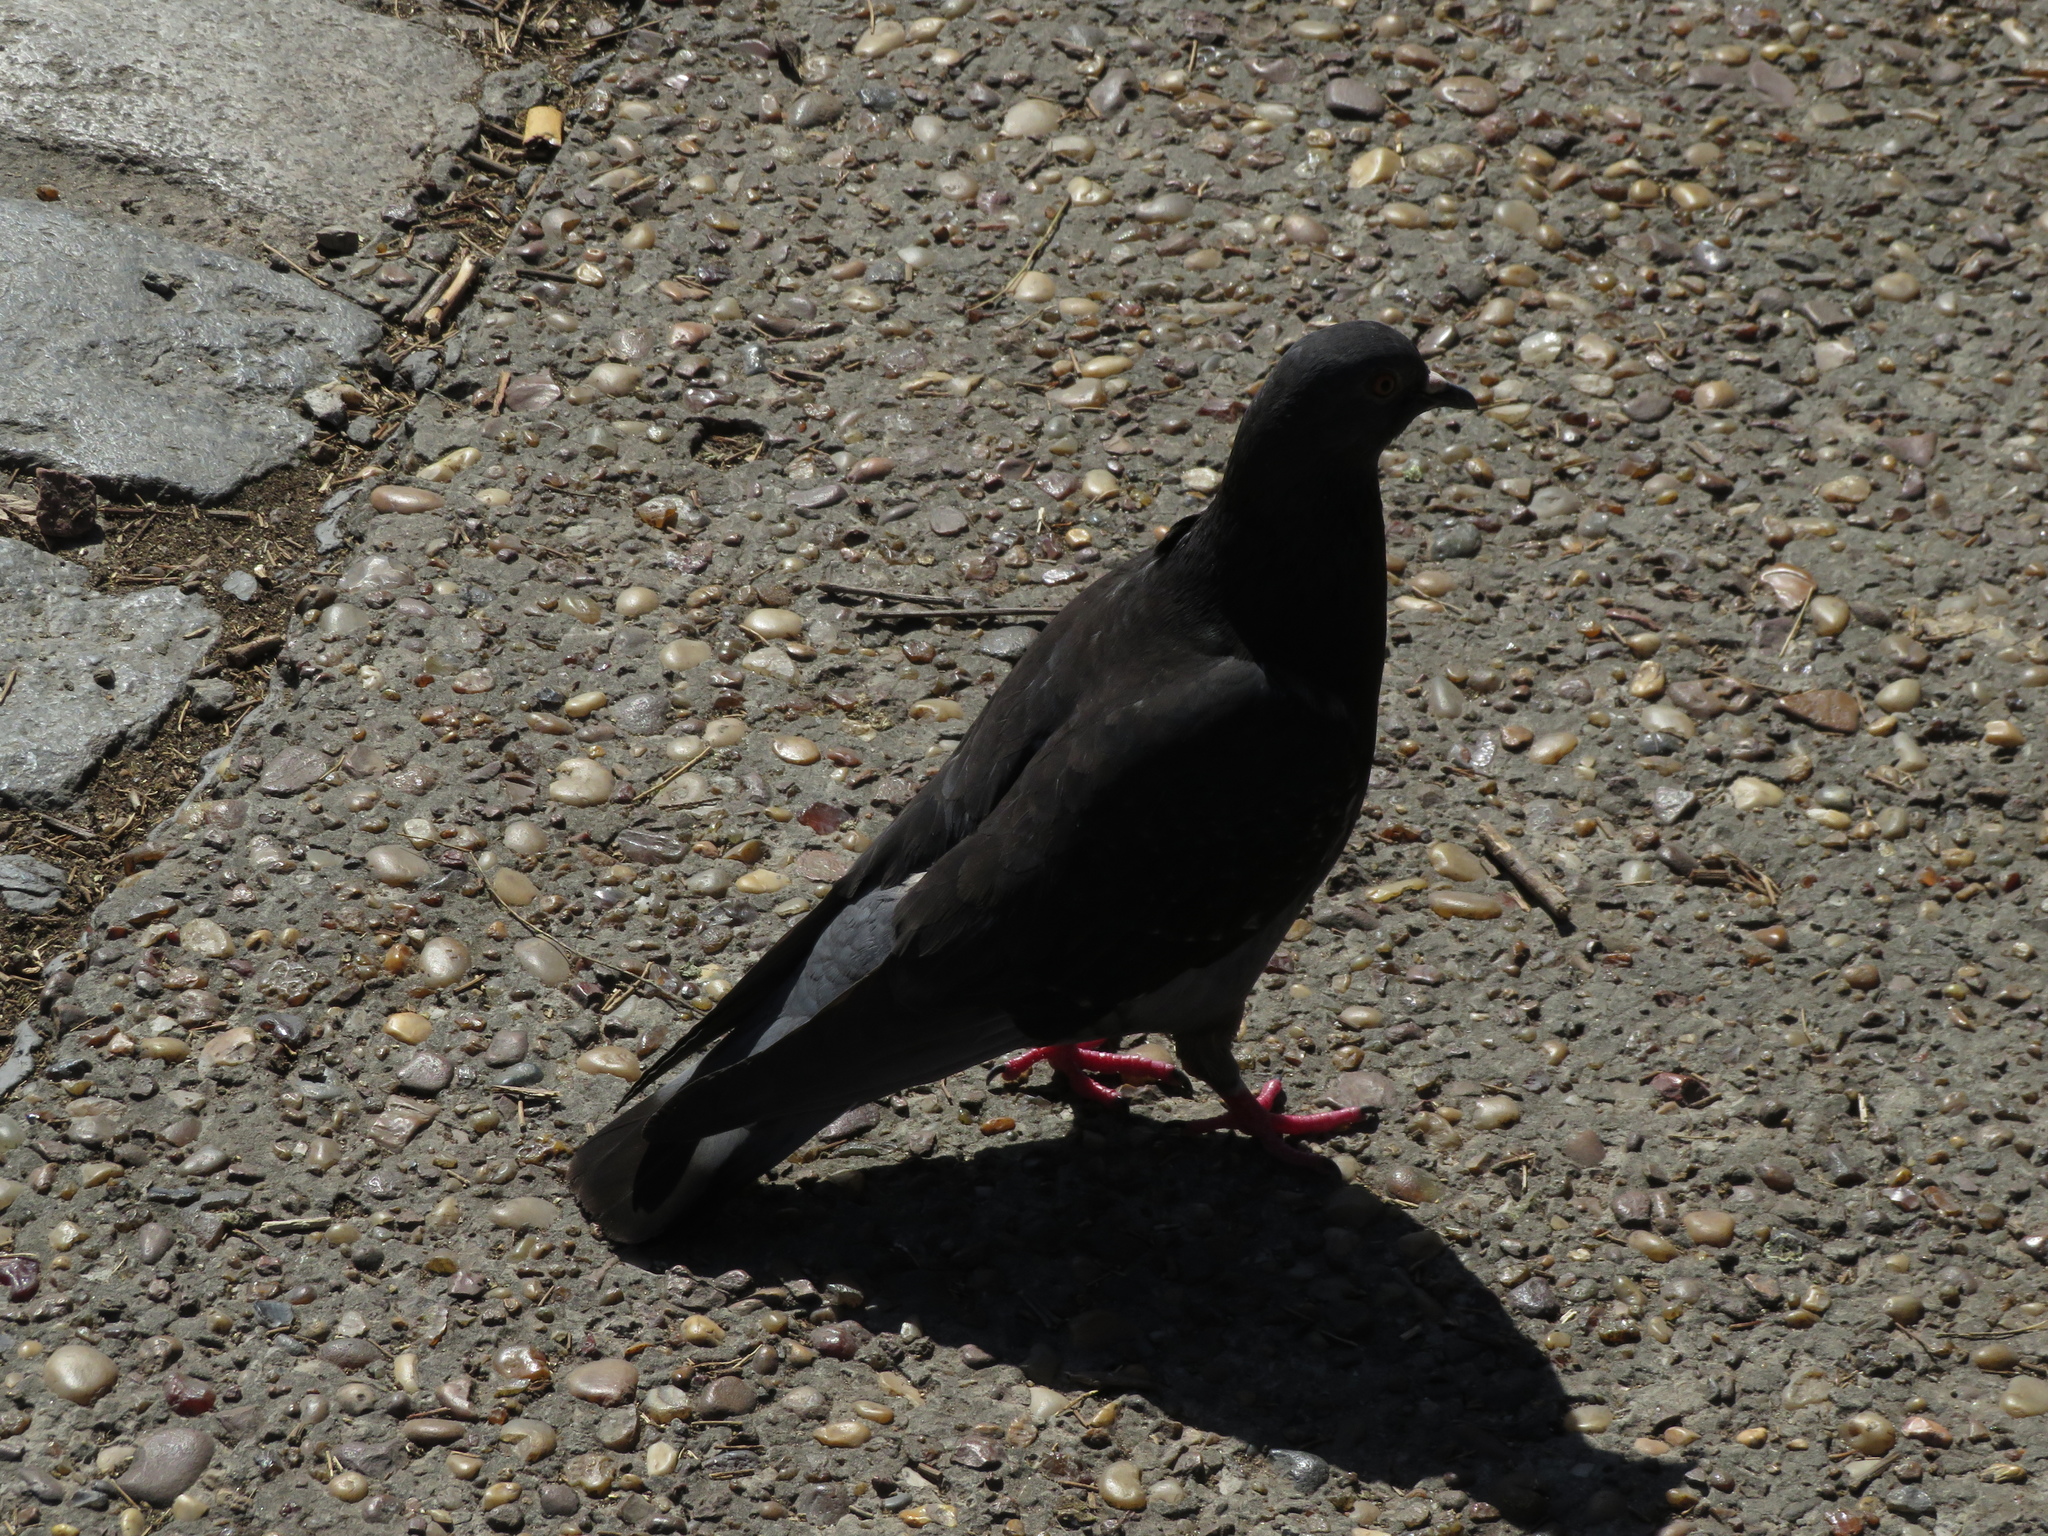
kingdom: Animalia
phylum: Chordata
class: Aves
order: Columbiformes
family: Columbidae
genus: Columba
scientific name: Columba livia
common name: Rock pigeon
